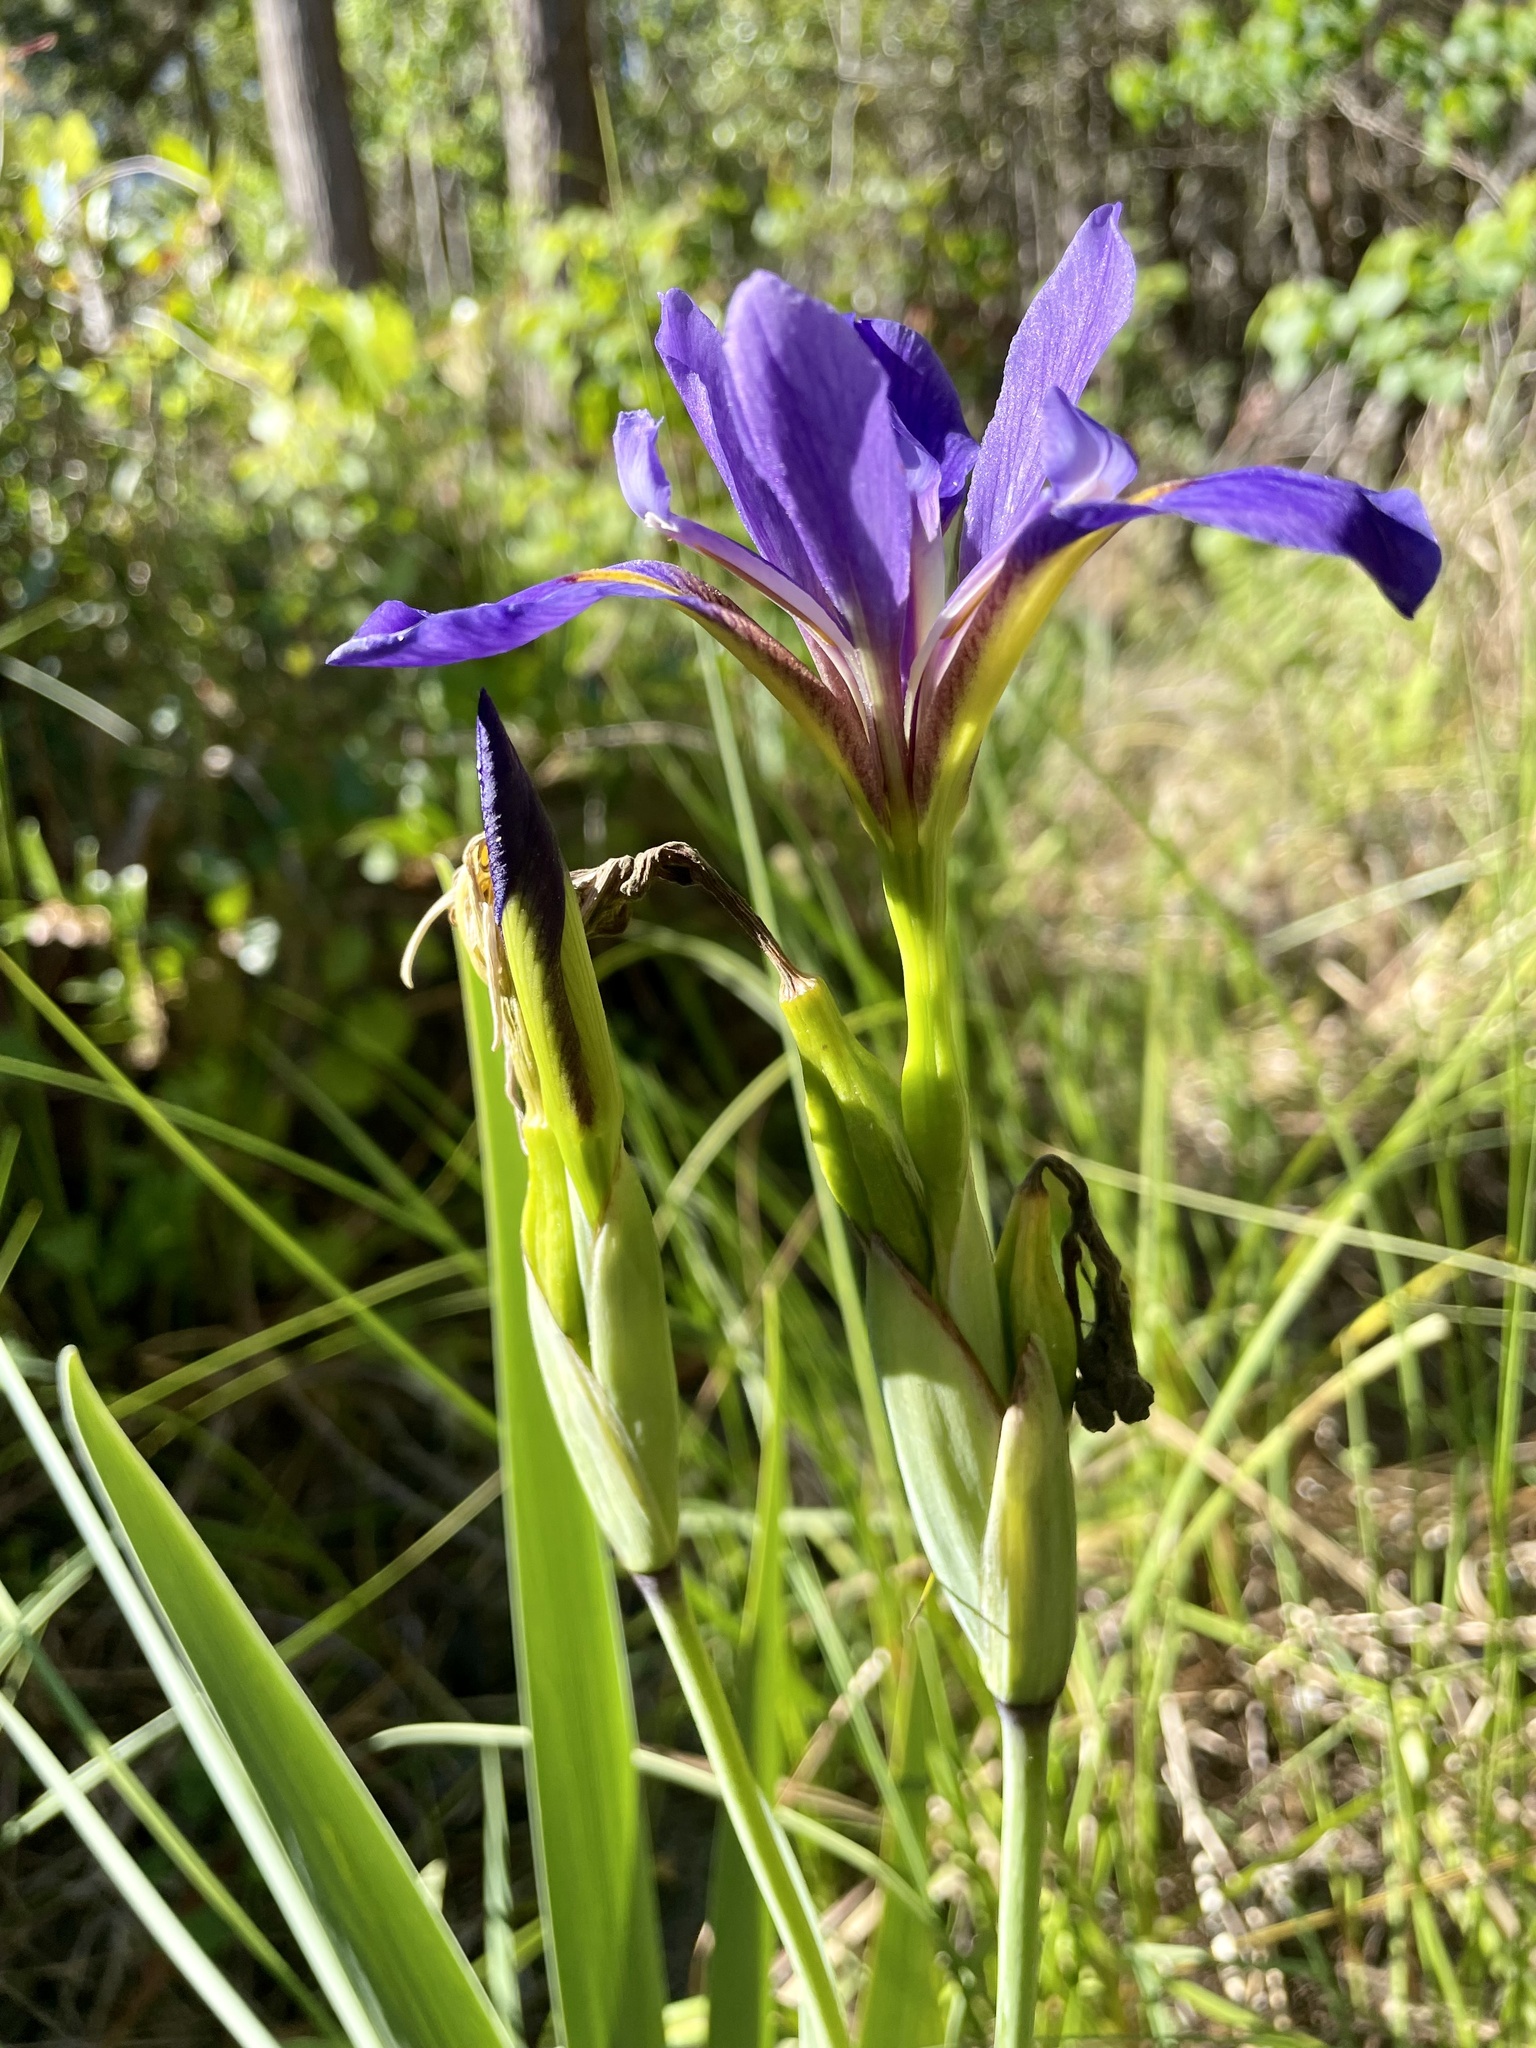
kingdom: Plantae
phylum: Tracheophyta
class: Liliopsida
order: Asparagales
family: Iridaceae
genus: Iris
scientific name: Iris virginica
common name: Southern blue flag
